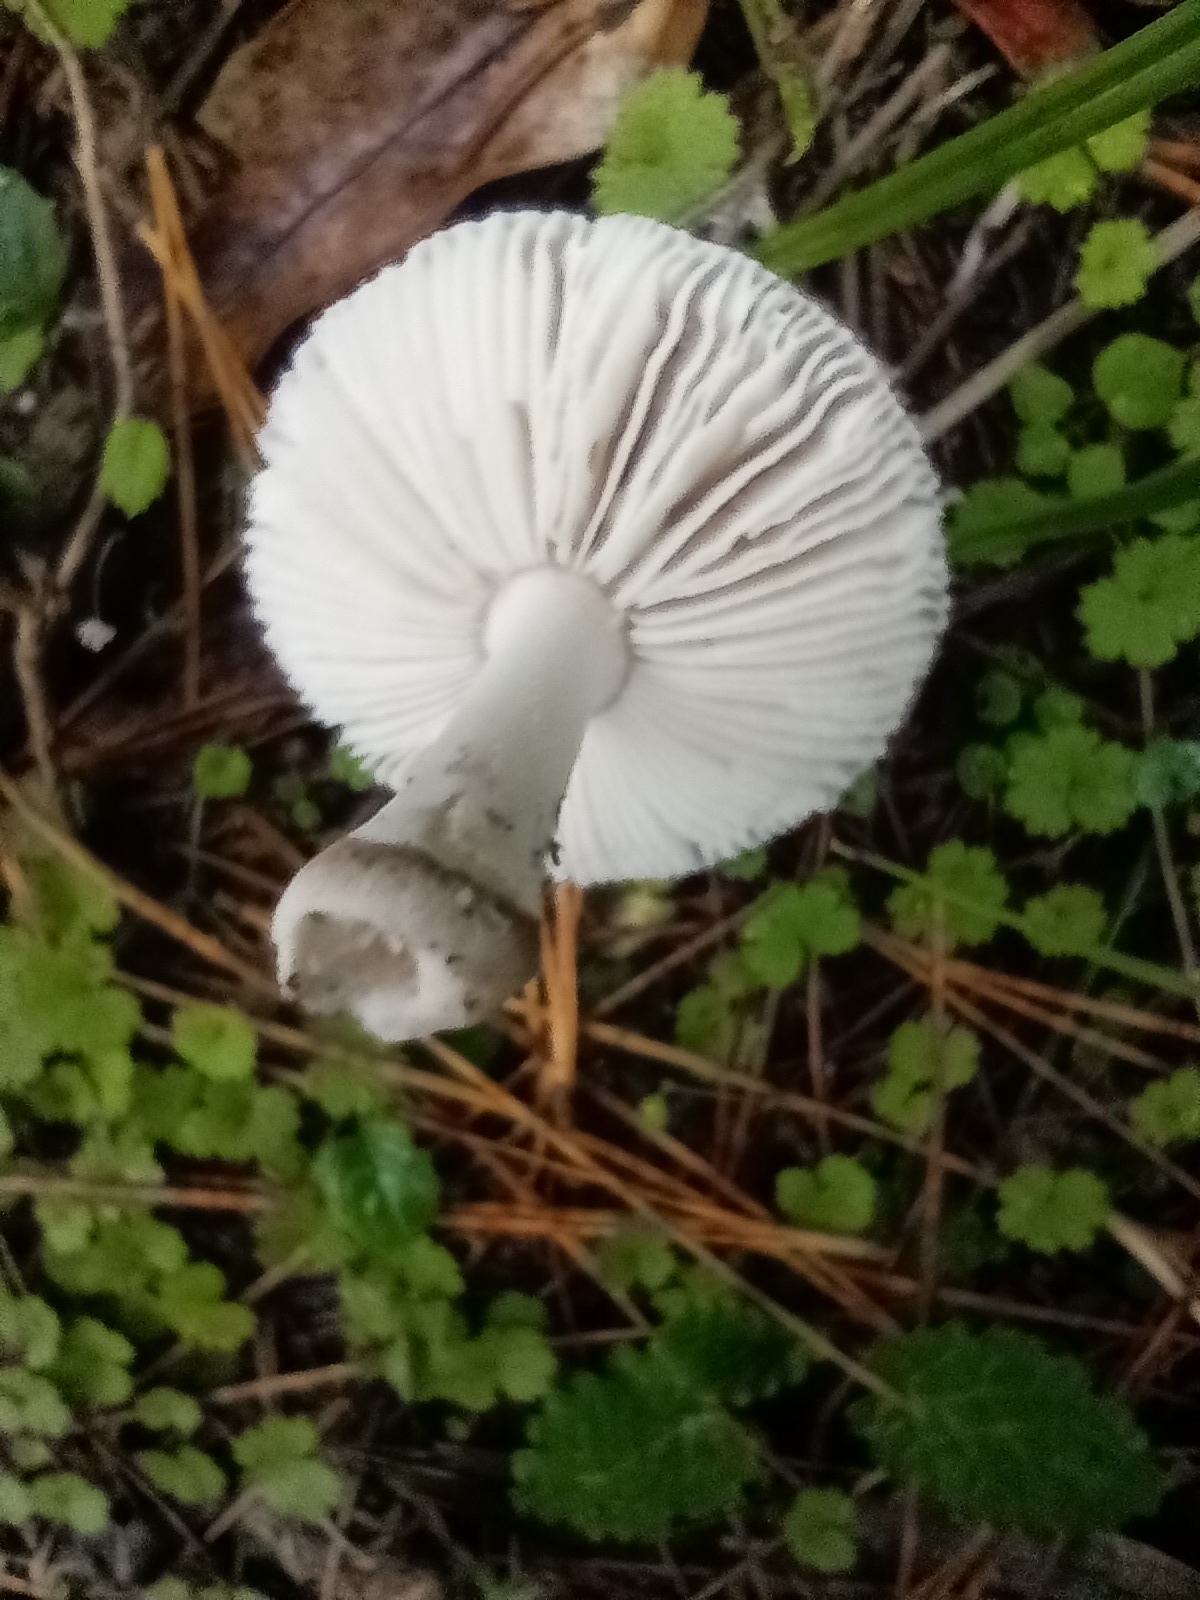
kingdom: Fungi
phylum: Basidiomycota
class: Agaricomycetes
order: Agaricales
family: Amanitaceae
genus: Amanita
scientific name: Amanita nehuta
